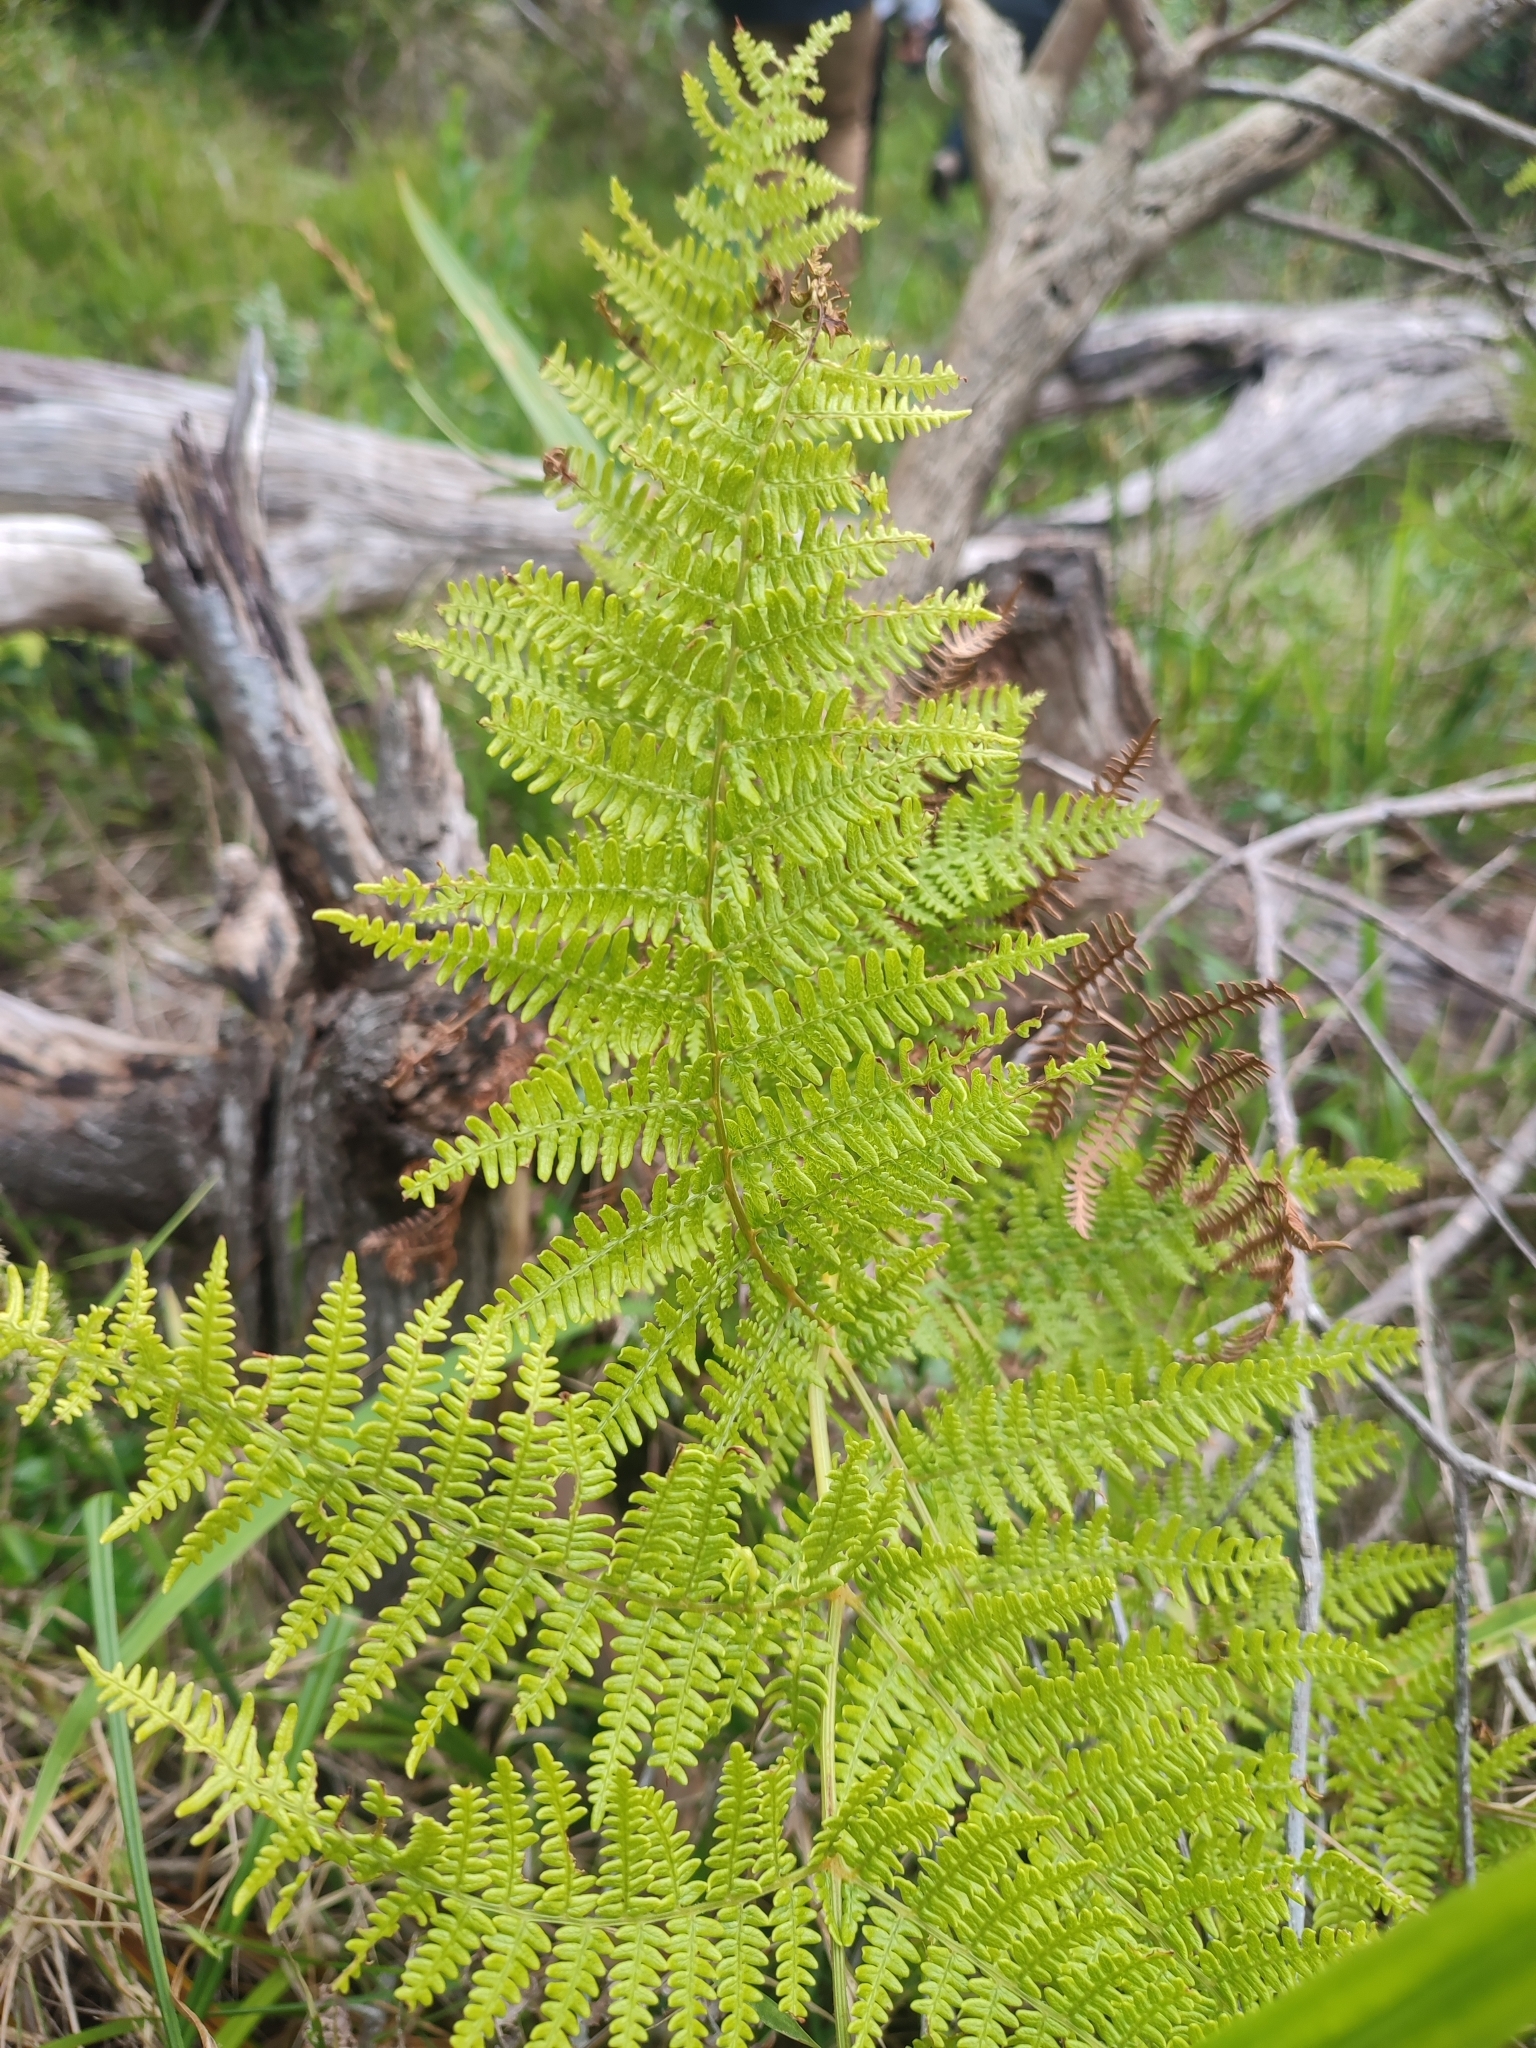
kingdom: Plantae
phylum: Tracheophyta
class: Polypodiopsida
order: Polypodiales
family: Dennstaedtiaceae
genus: Pteridium
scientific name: Pteridium aquilinum
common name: Bracken
